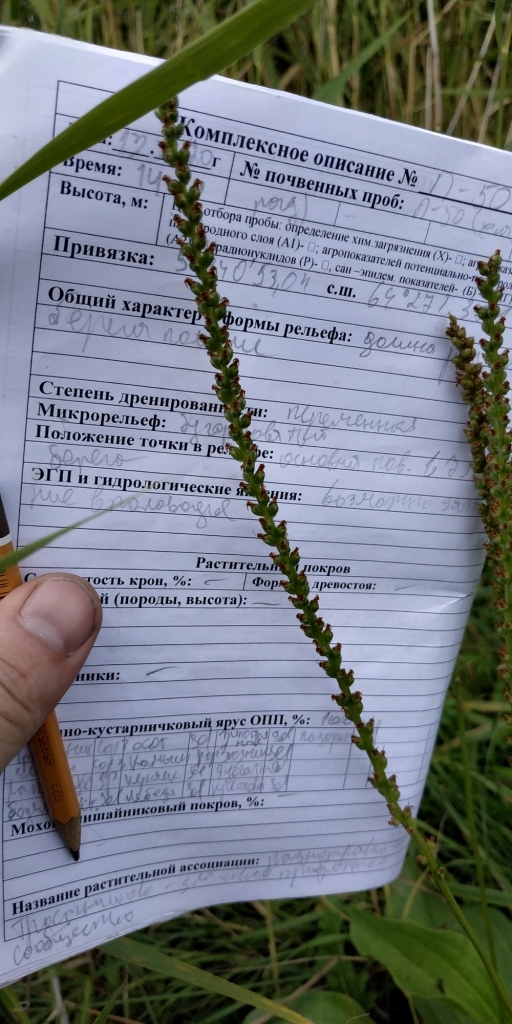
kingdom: Plantae
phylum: Tracheophyta
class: Magnoliopsida
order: Lamiales
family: Plantaginaceae
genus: Plantago
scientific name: Plantago cornuti
